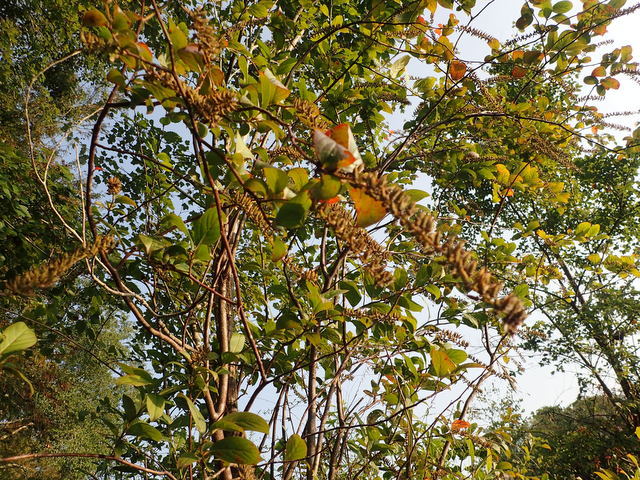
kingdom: Plantae
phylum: Tracheophyta
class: Magnoliopsida
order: Saxifragales
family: Iteaceae
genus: Itea
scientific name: Itea virginica
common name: Sweetspire
